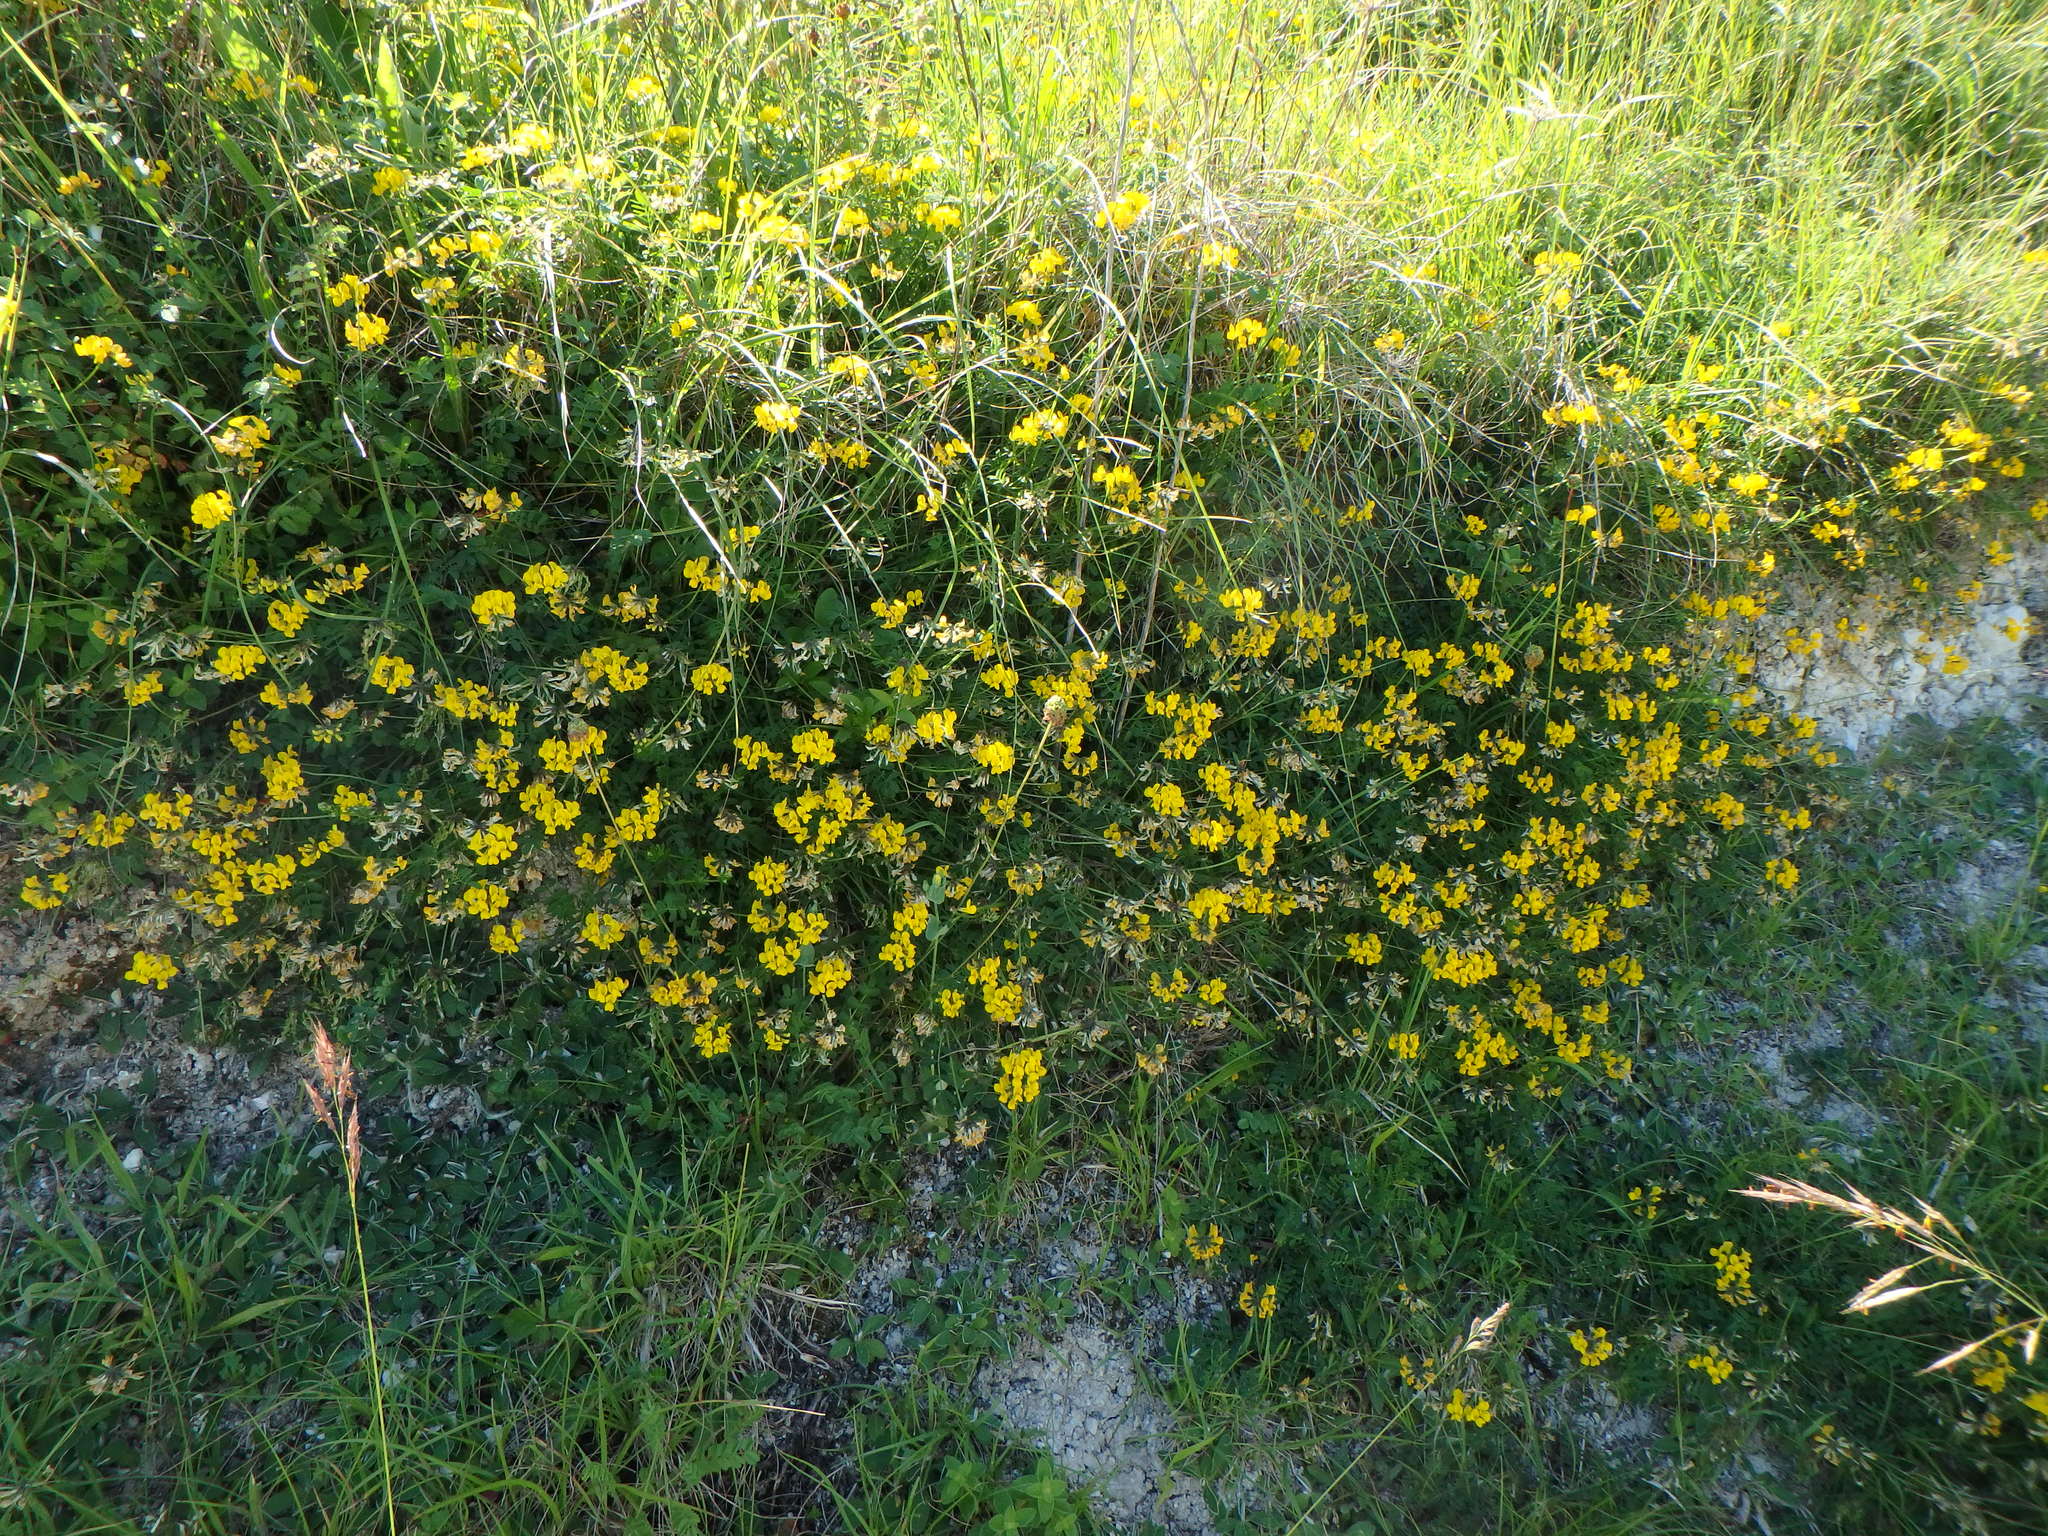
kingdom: Plantae
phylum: Tracheophyta
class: Magnoliopsida
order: Fabales
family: Fabaceae
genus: Hippocrepis
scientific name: Hippocrepis comosa
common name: Horseshoe vetch
